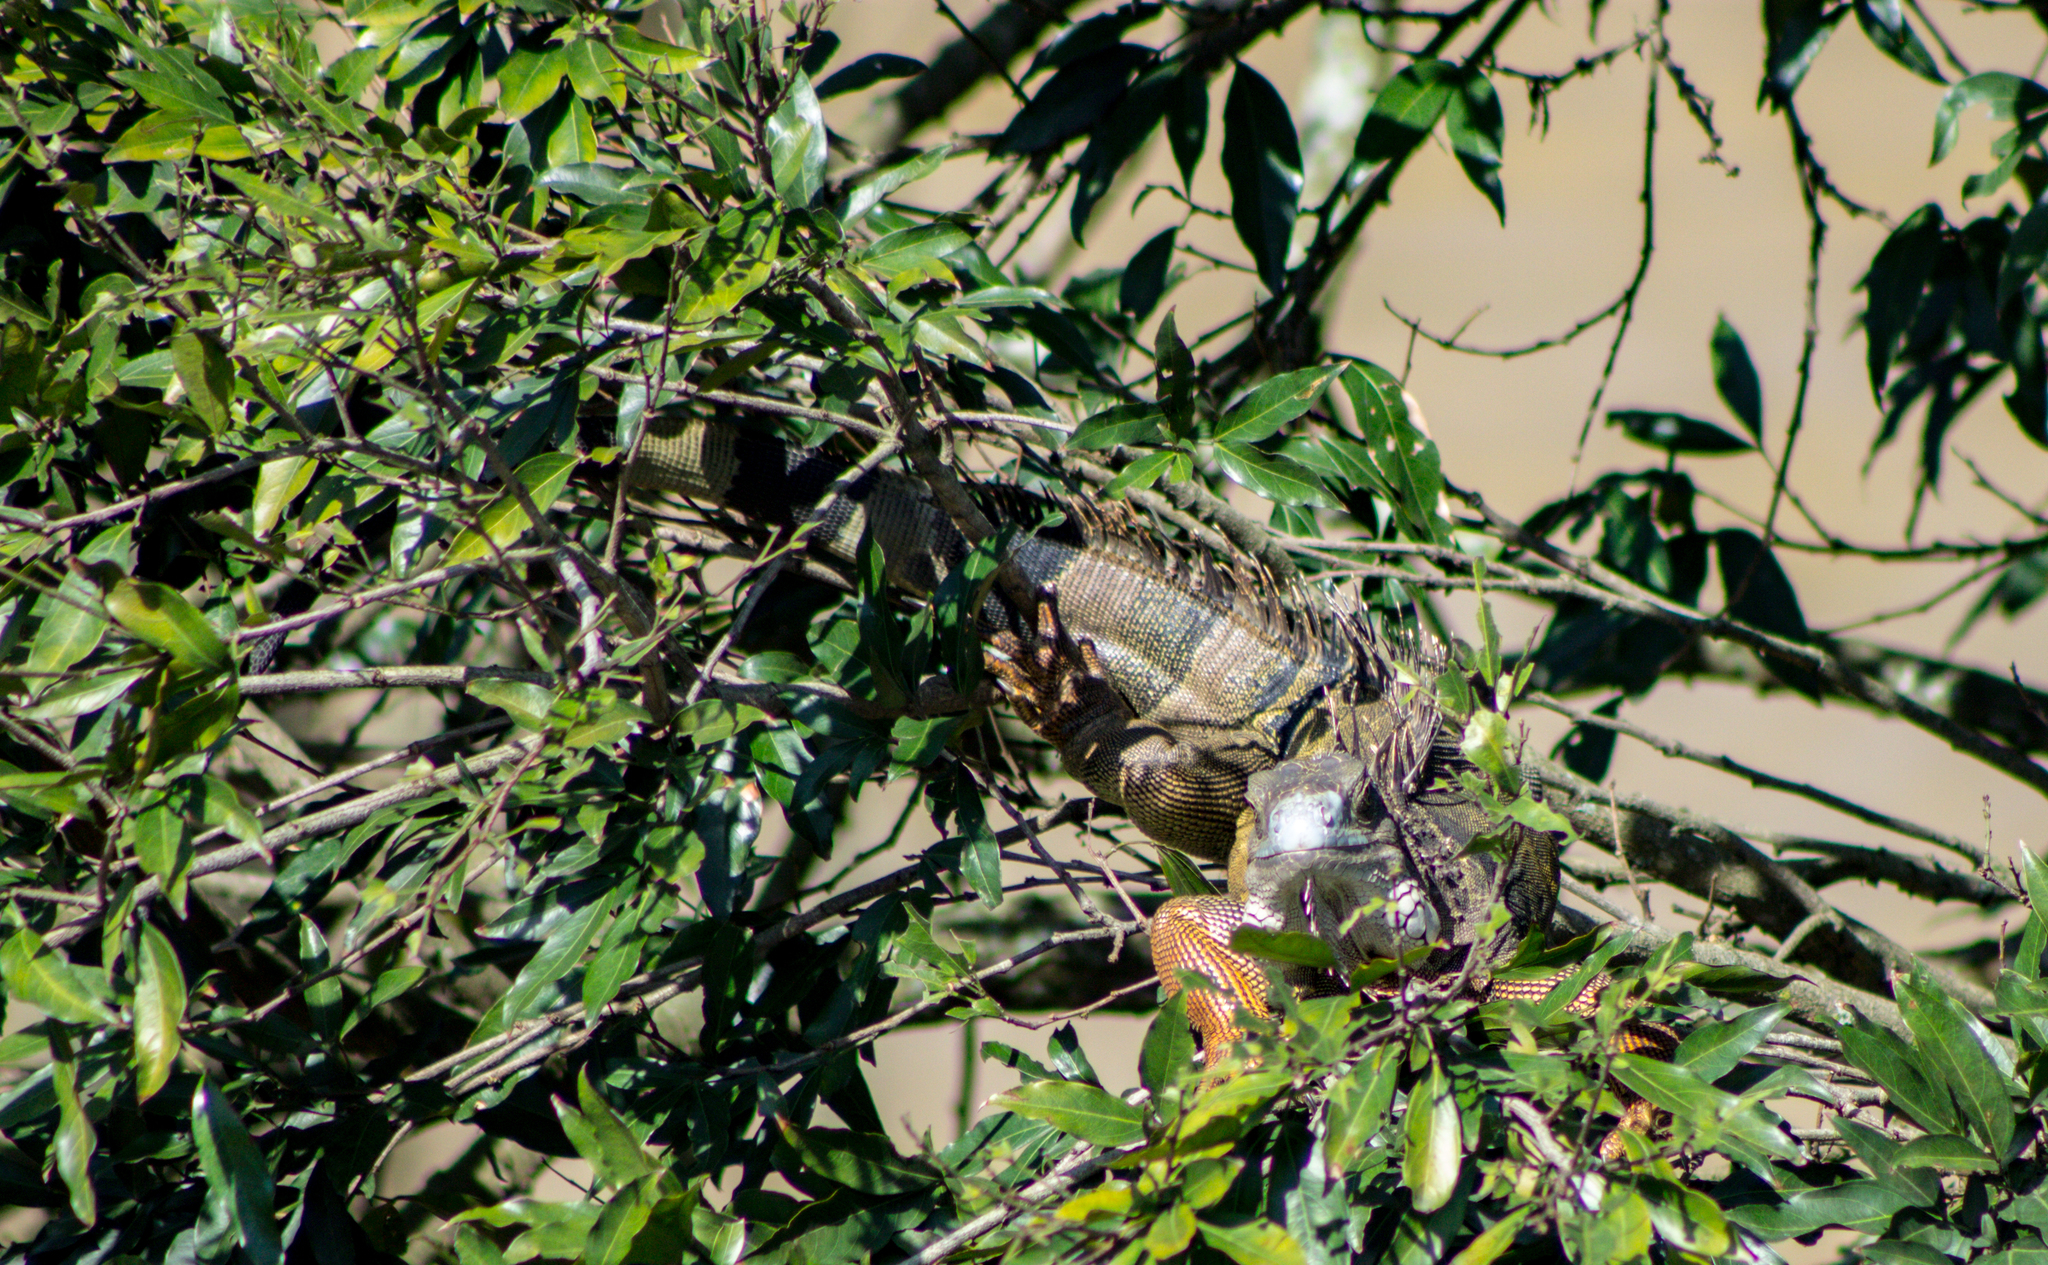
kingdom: Animalia
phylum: Chordata
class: Squamata
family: Iguanidae
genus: Iguana
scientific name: Iguana iguana
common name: Green iguana
